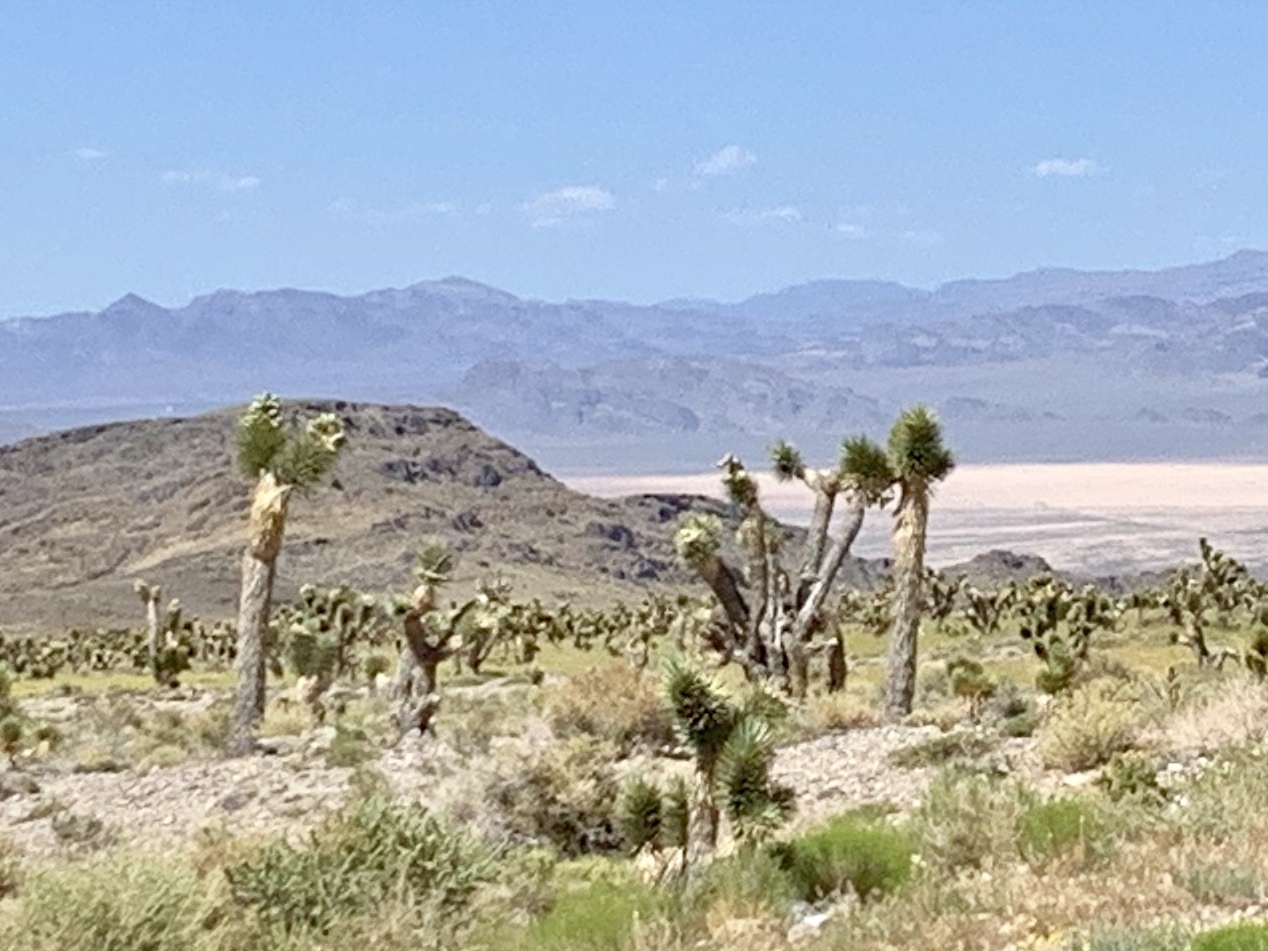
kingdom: Plantae
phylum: Tracheophyta
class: Liliopsida
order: Asparagales
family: Asparagaceae
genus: Yucca
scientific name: Yucca brevifolia
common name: Joshua tree
